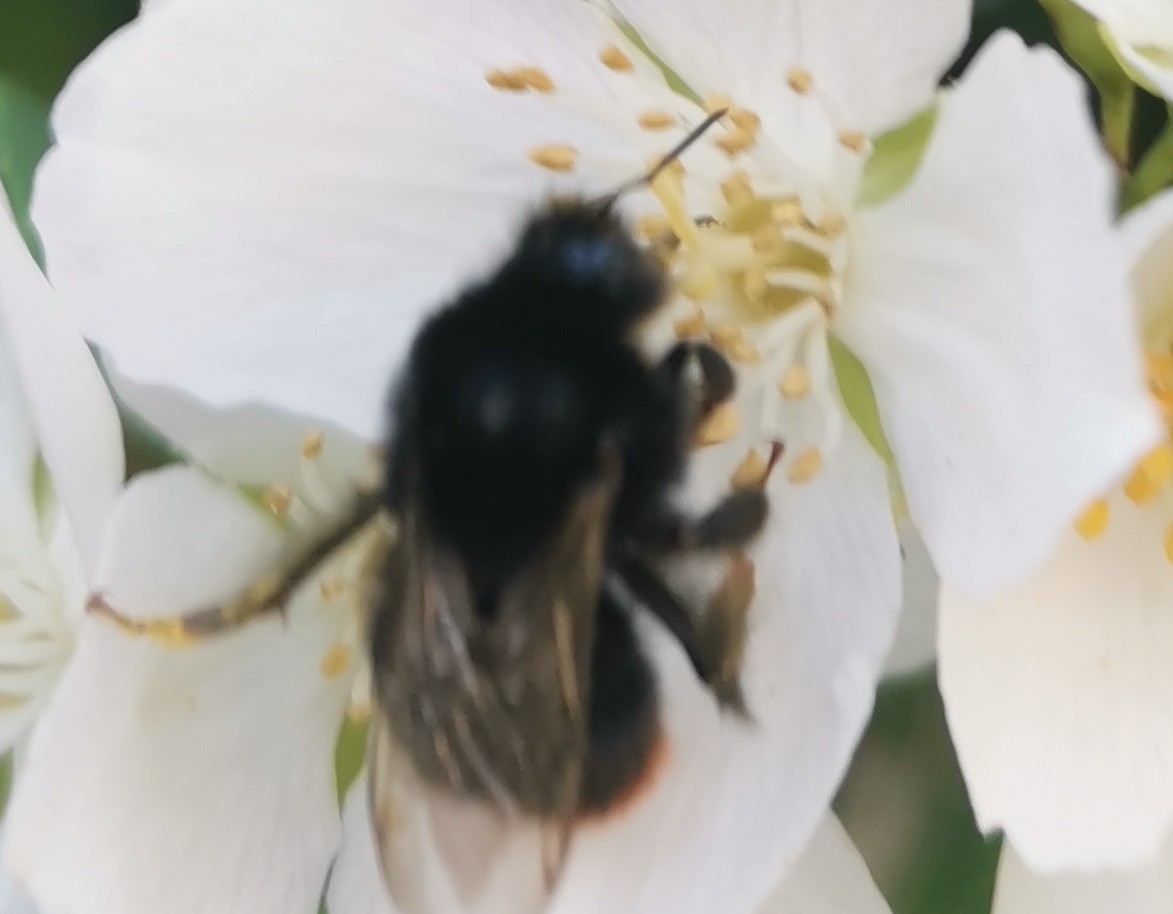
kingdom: Animalia
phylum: Arthropoda
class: Insecta
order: Hymenoptera
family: Apidae
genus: Bombus
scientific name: Bombus lapidarius
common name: Large red-tailed humble-bee
